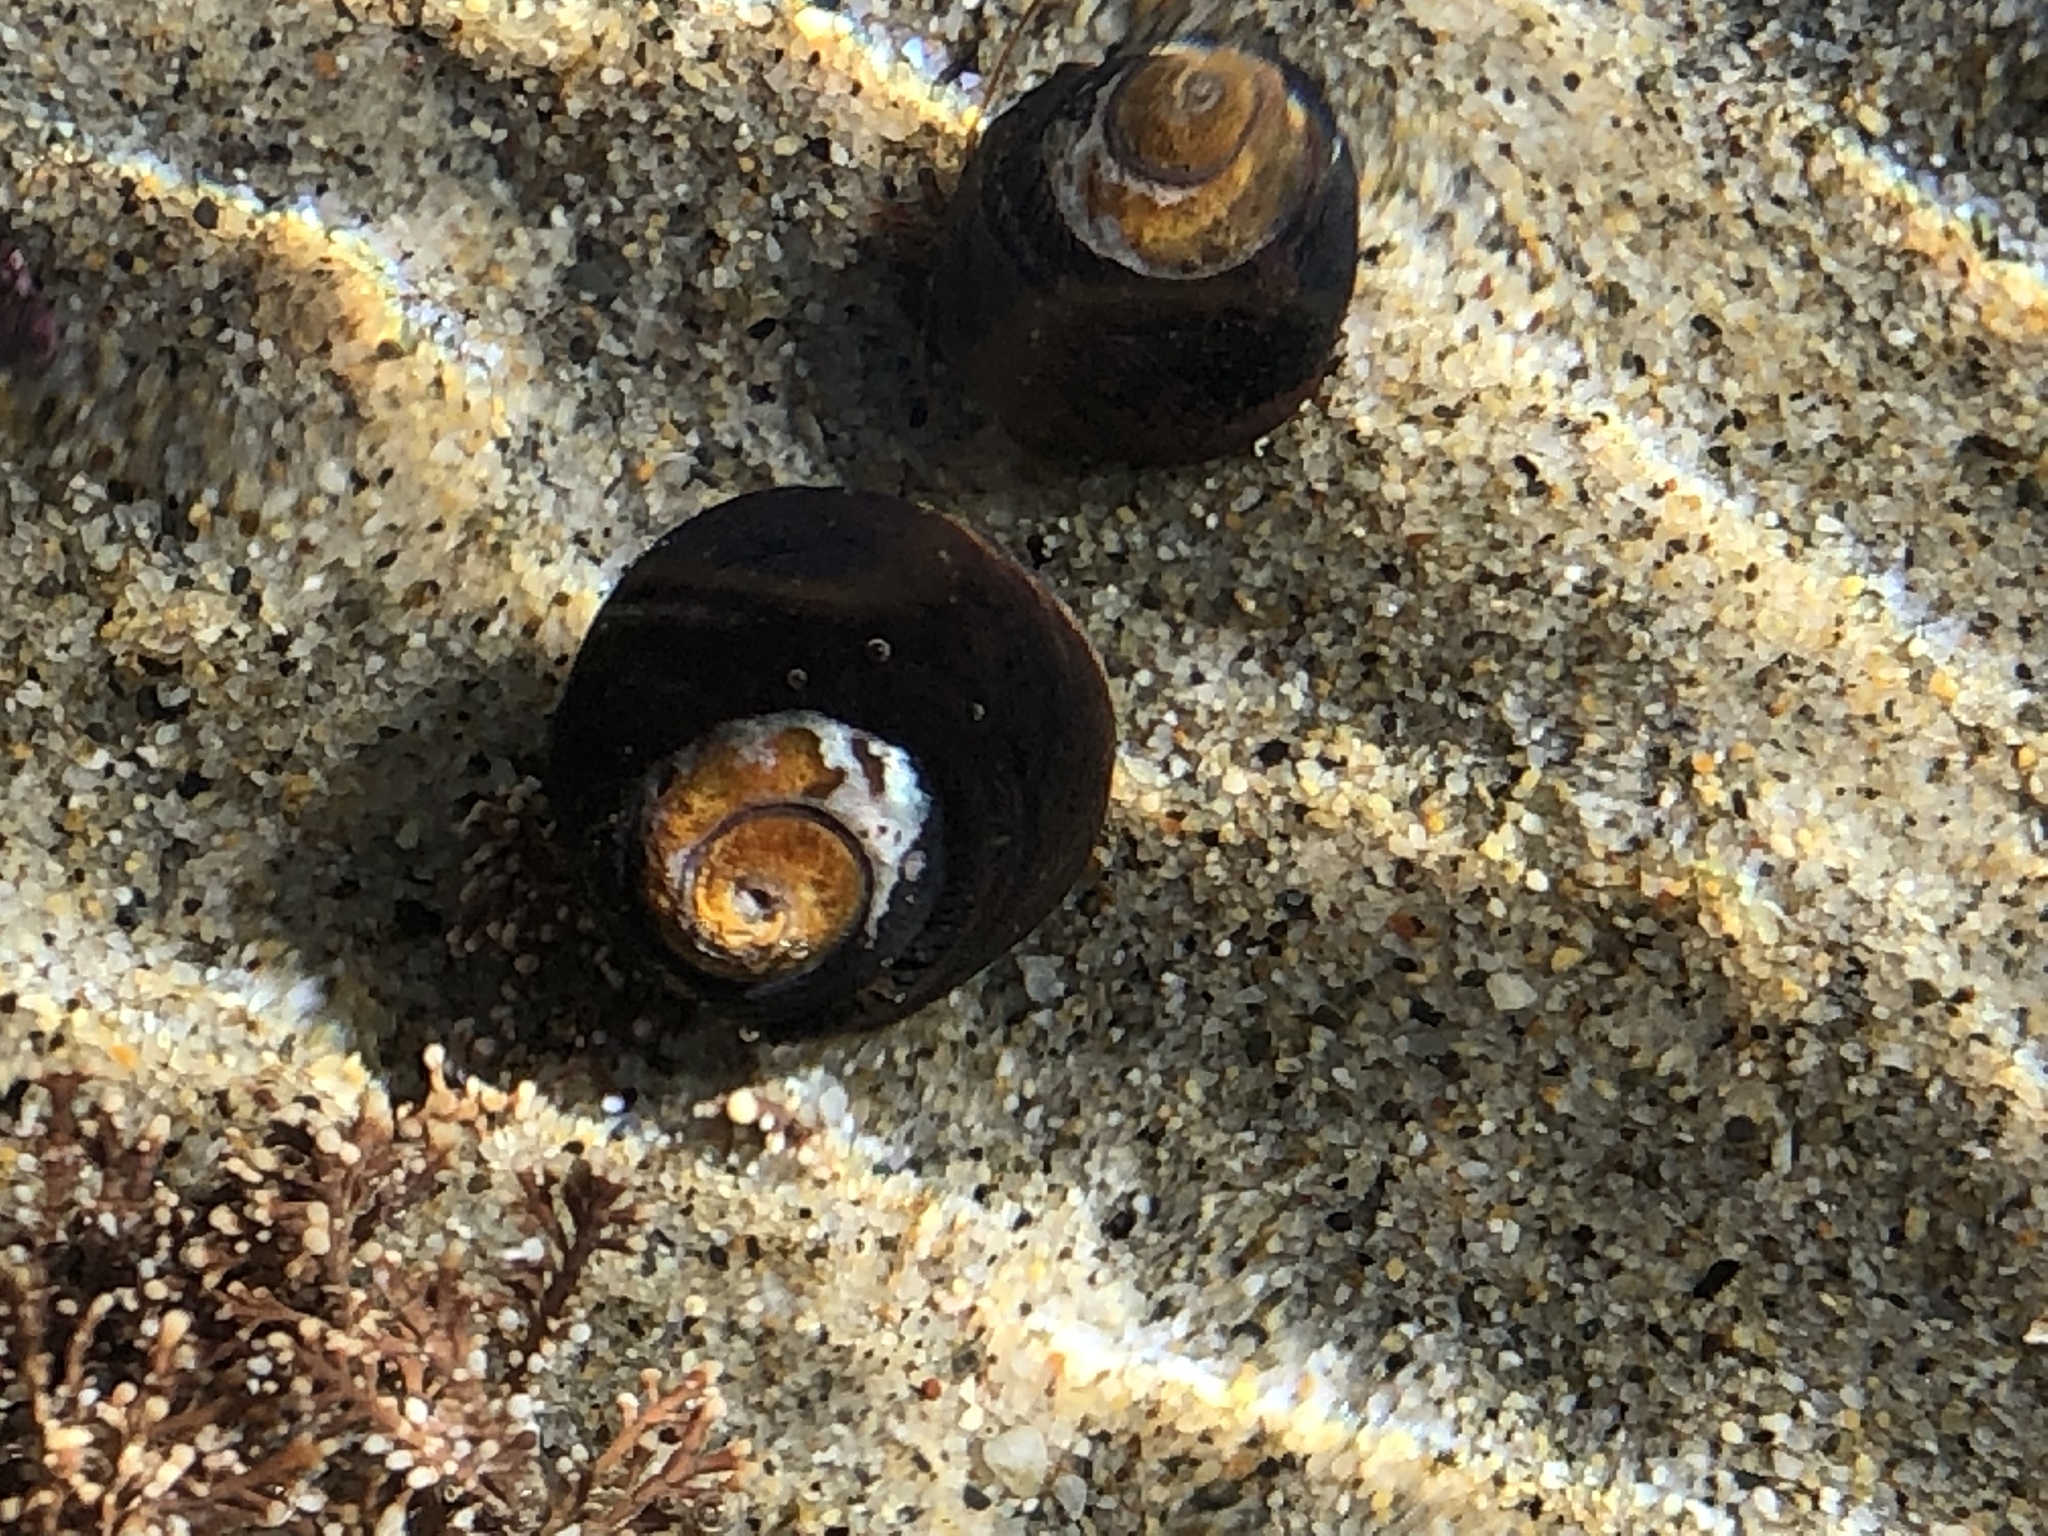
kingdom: Animalia
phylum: Mollusca
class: Gastropoda
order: Trochida
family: Tegulidae
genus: Tegula
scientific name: Tegula funebralis
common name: Black tegula
